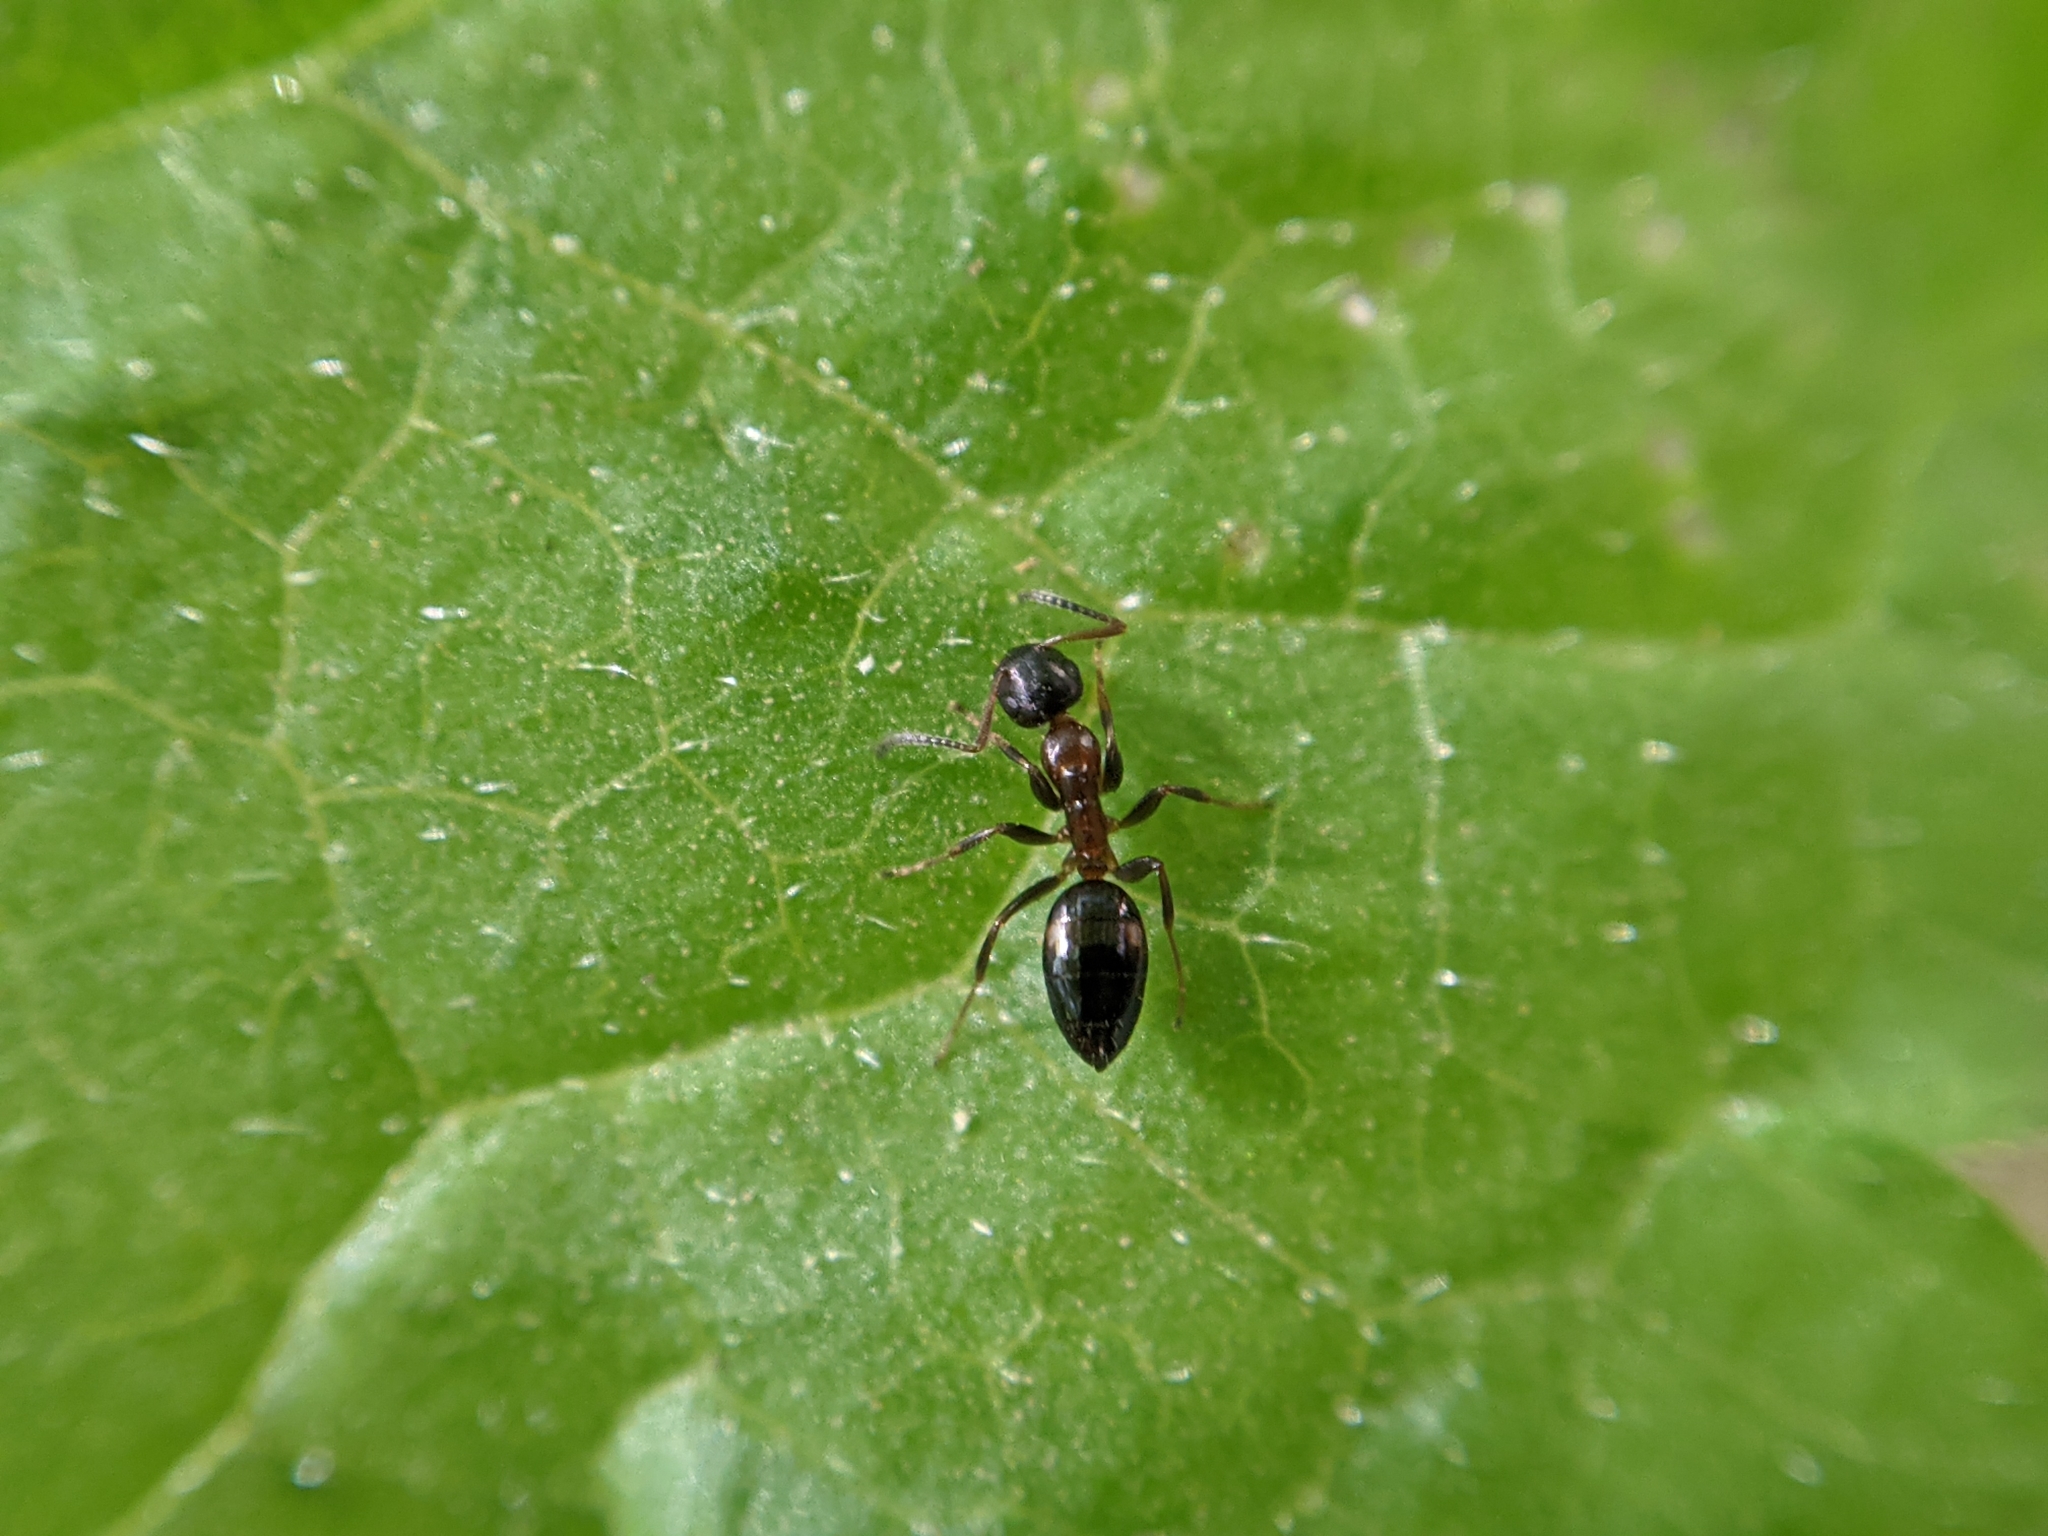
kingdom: Animalia
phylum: Arthropoda
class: Insecta
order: Hymenoptera
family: Formicidae
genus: Camponotus
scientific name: Camponotus truncatus
